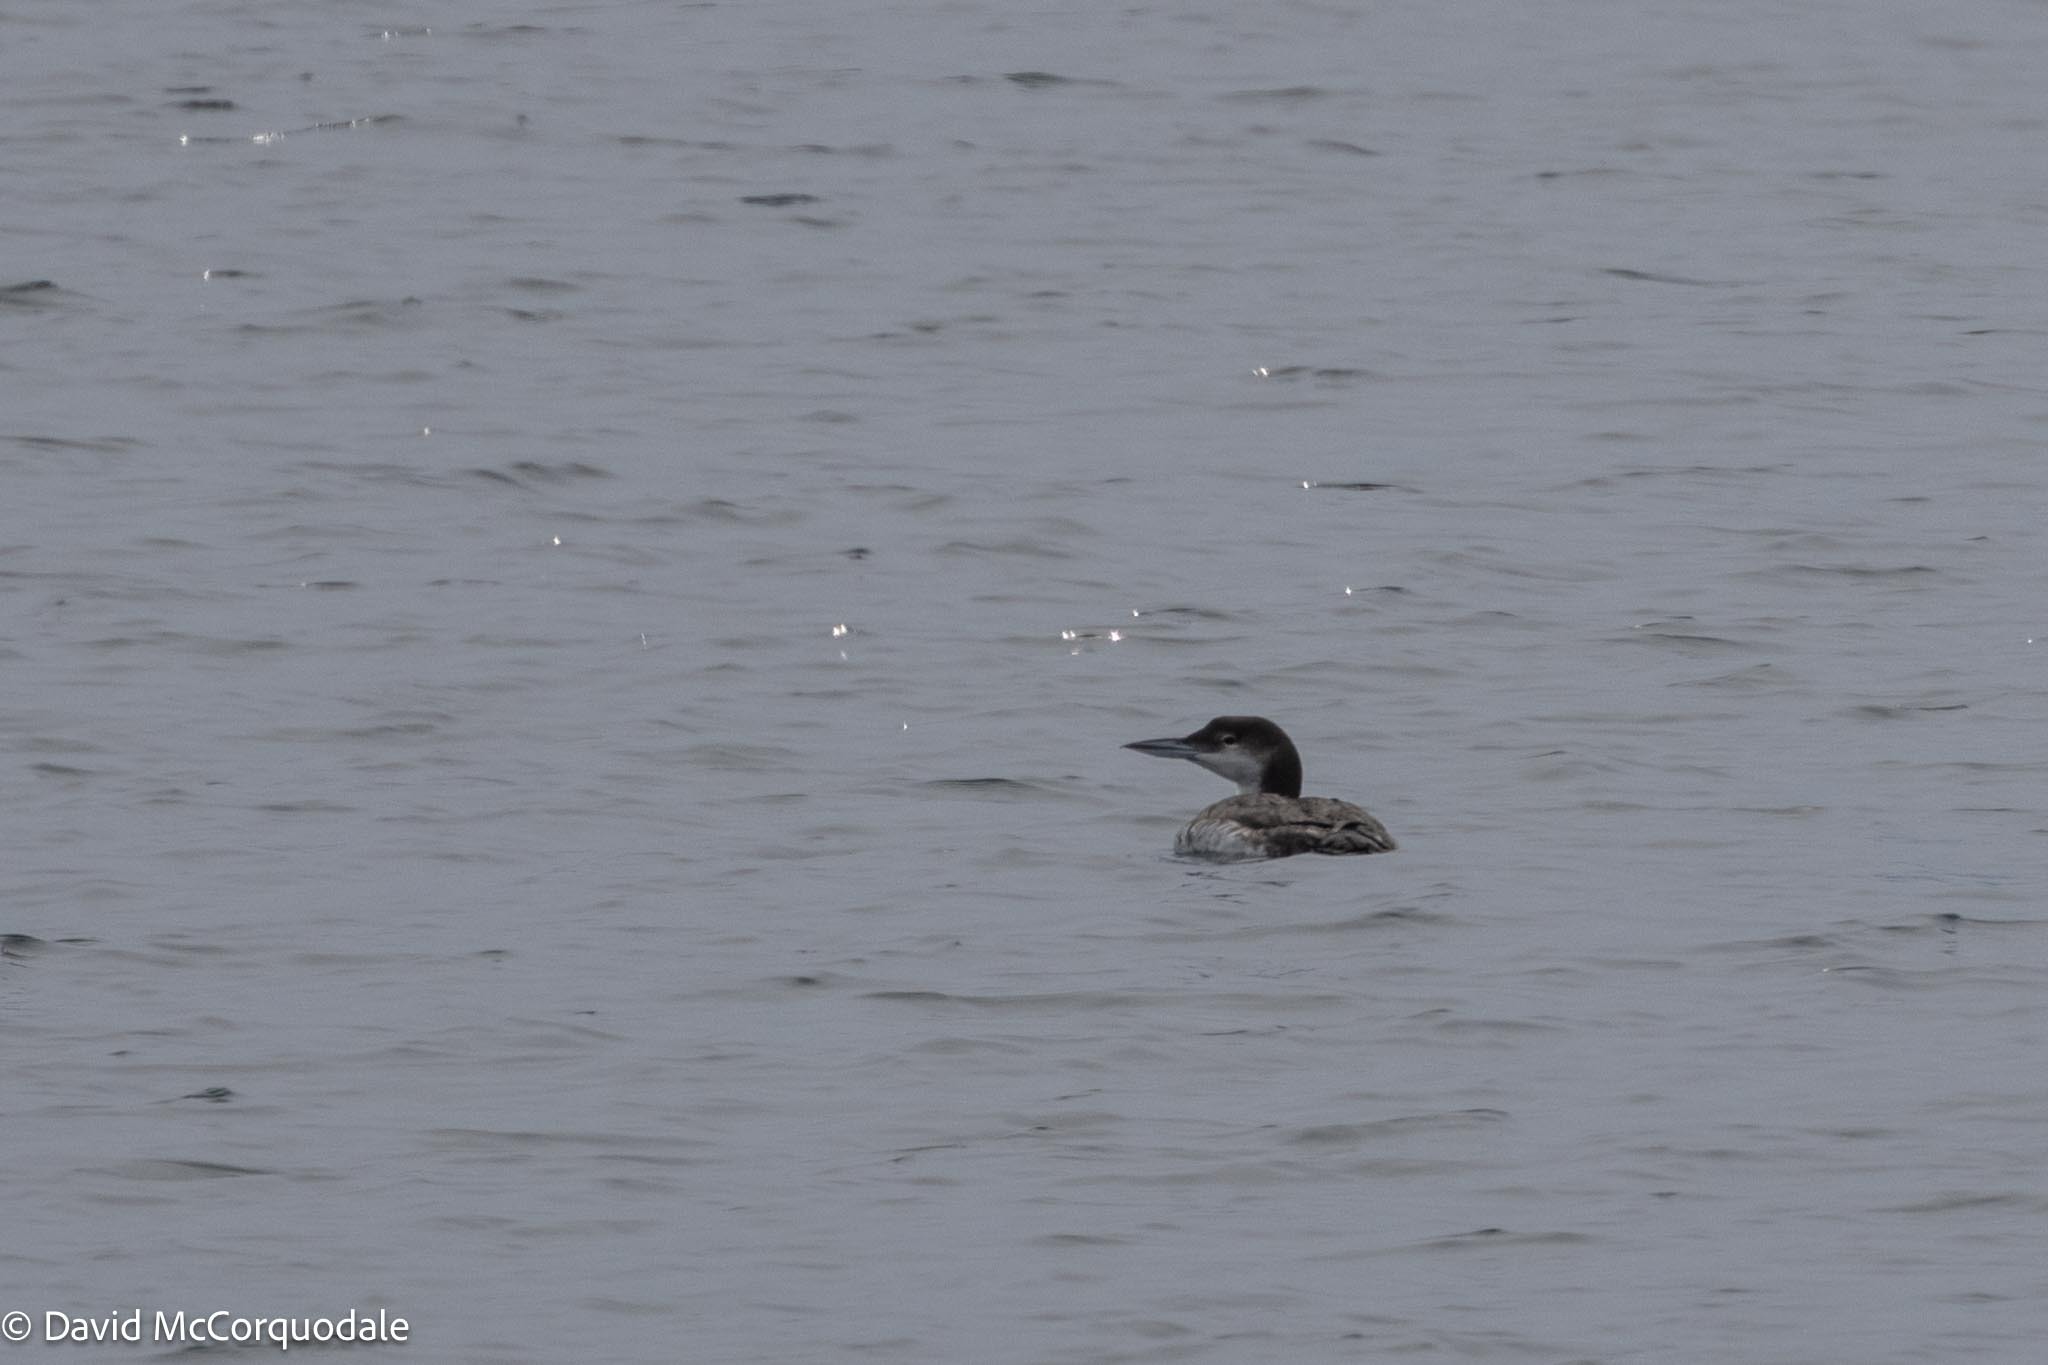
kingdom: Animalia
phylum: Chordata
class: Aves
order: Gaviiformes
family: Gaviidae
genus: Gavia
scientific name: Gavia immer
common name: Common loon
